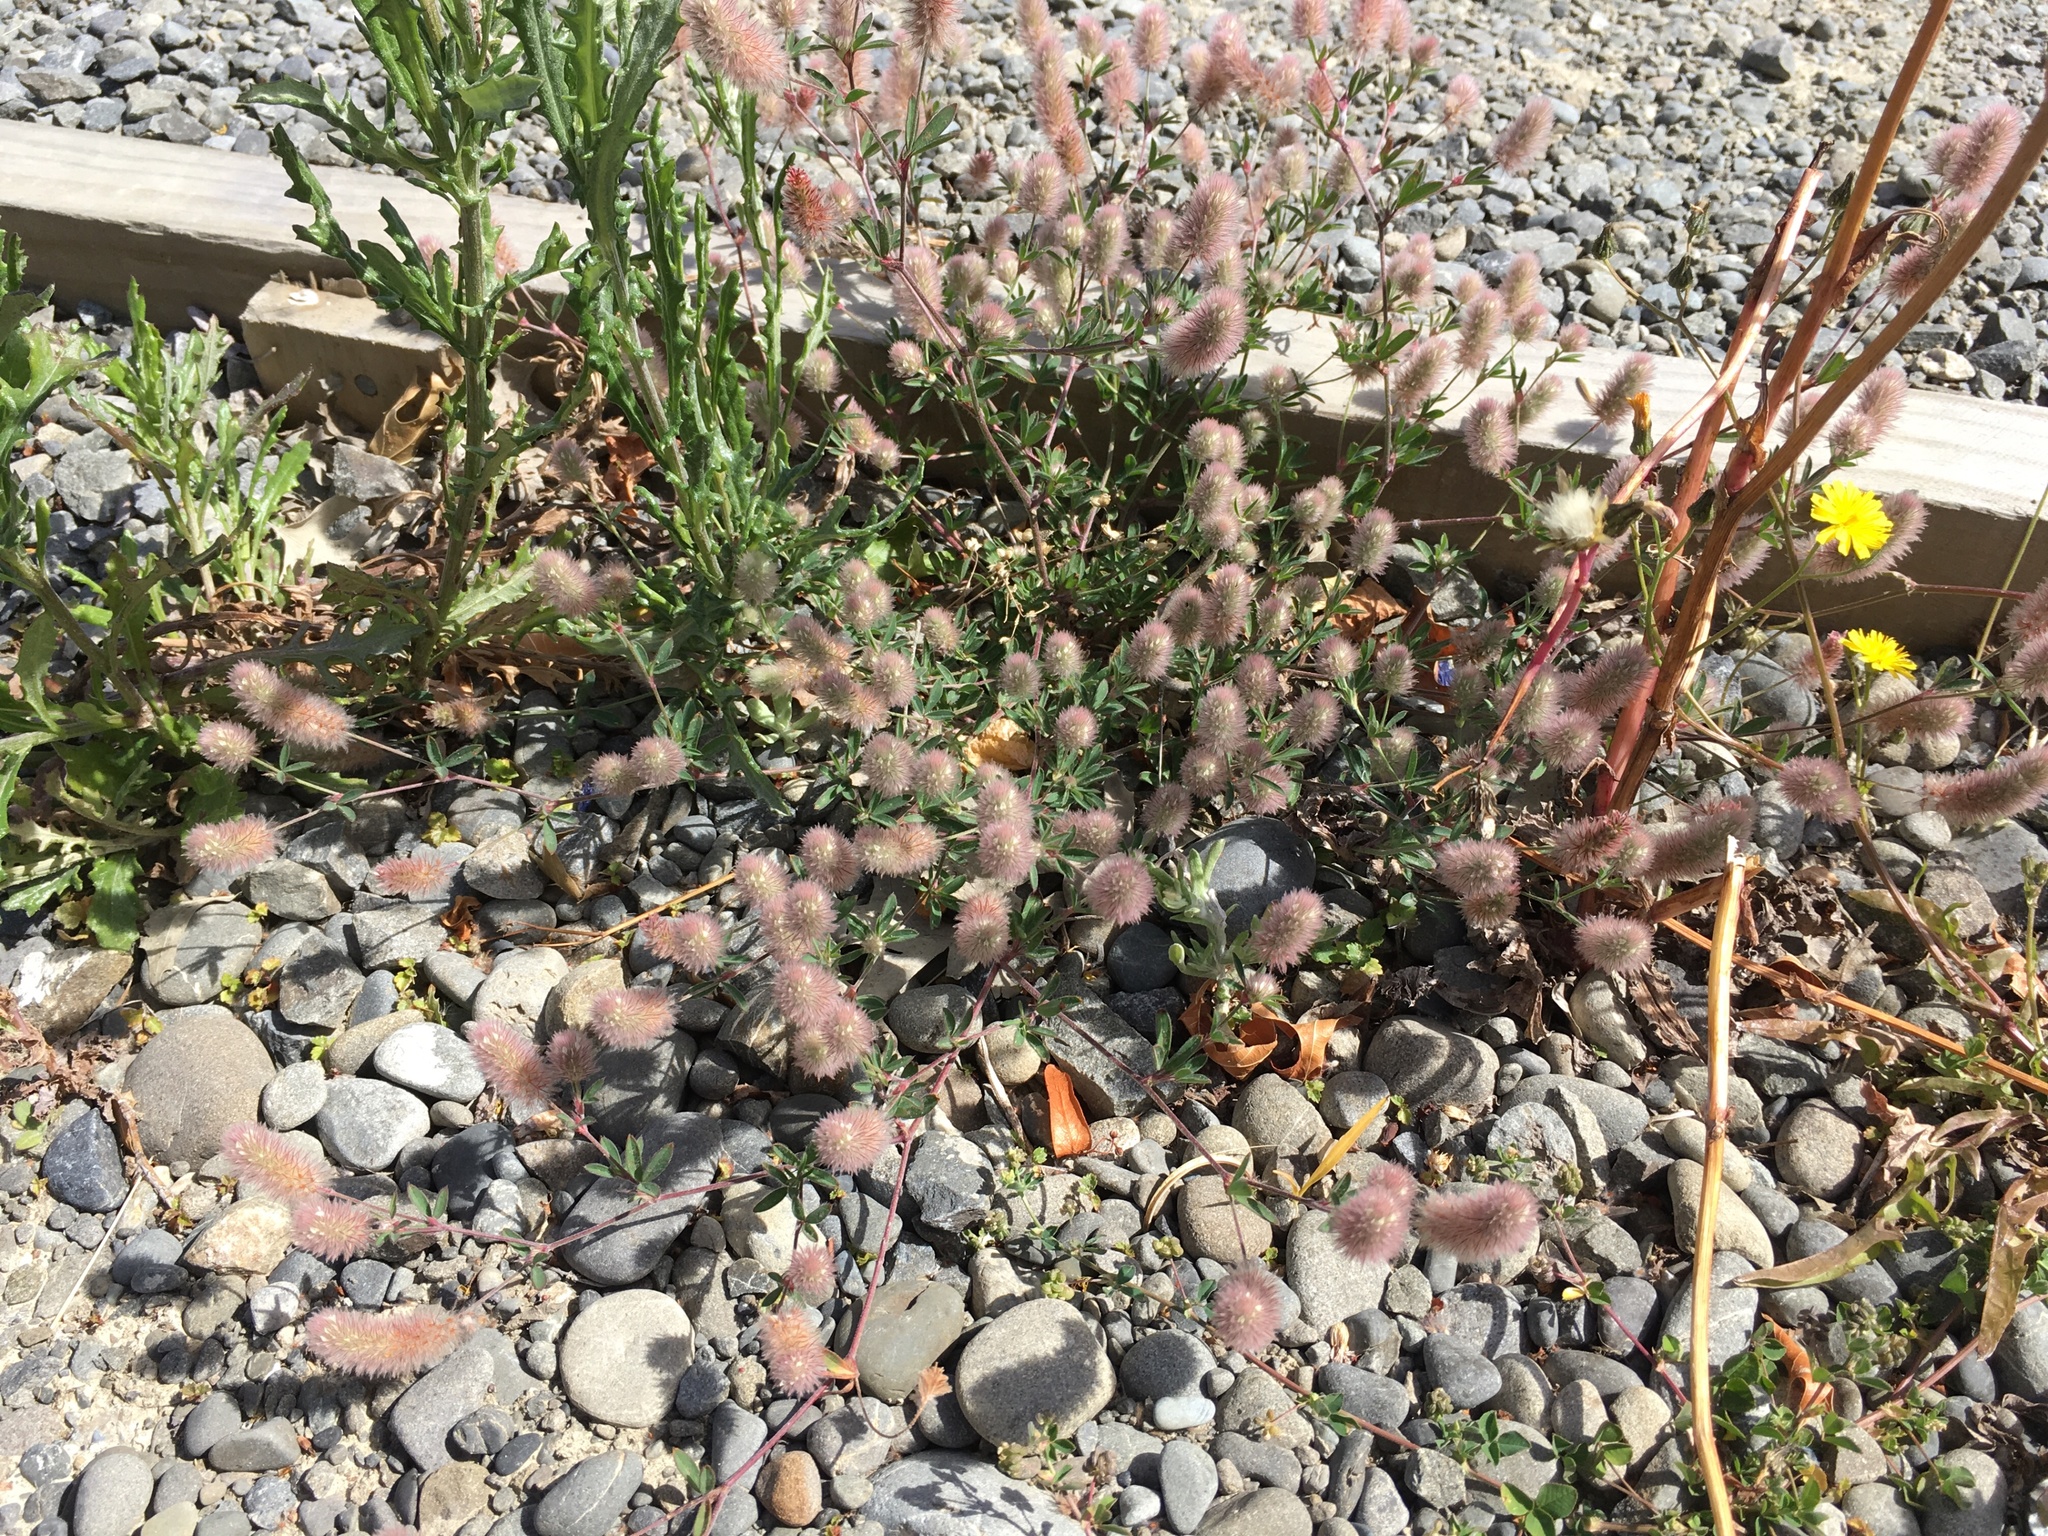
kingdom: Plantae
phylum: Tracheophyta
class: Magnoliopsida
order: Fabales
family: Fabaceae
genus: Trifolium
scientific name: Trifolium arvense
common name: Hare's-foot clover
